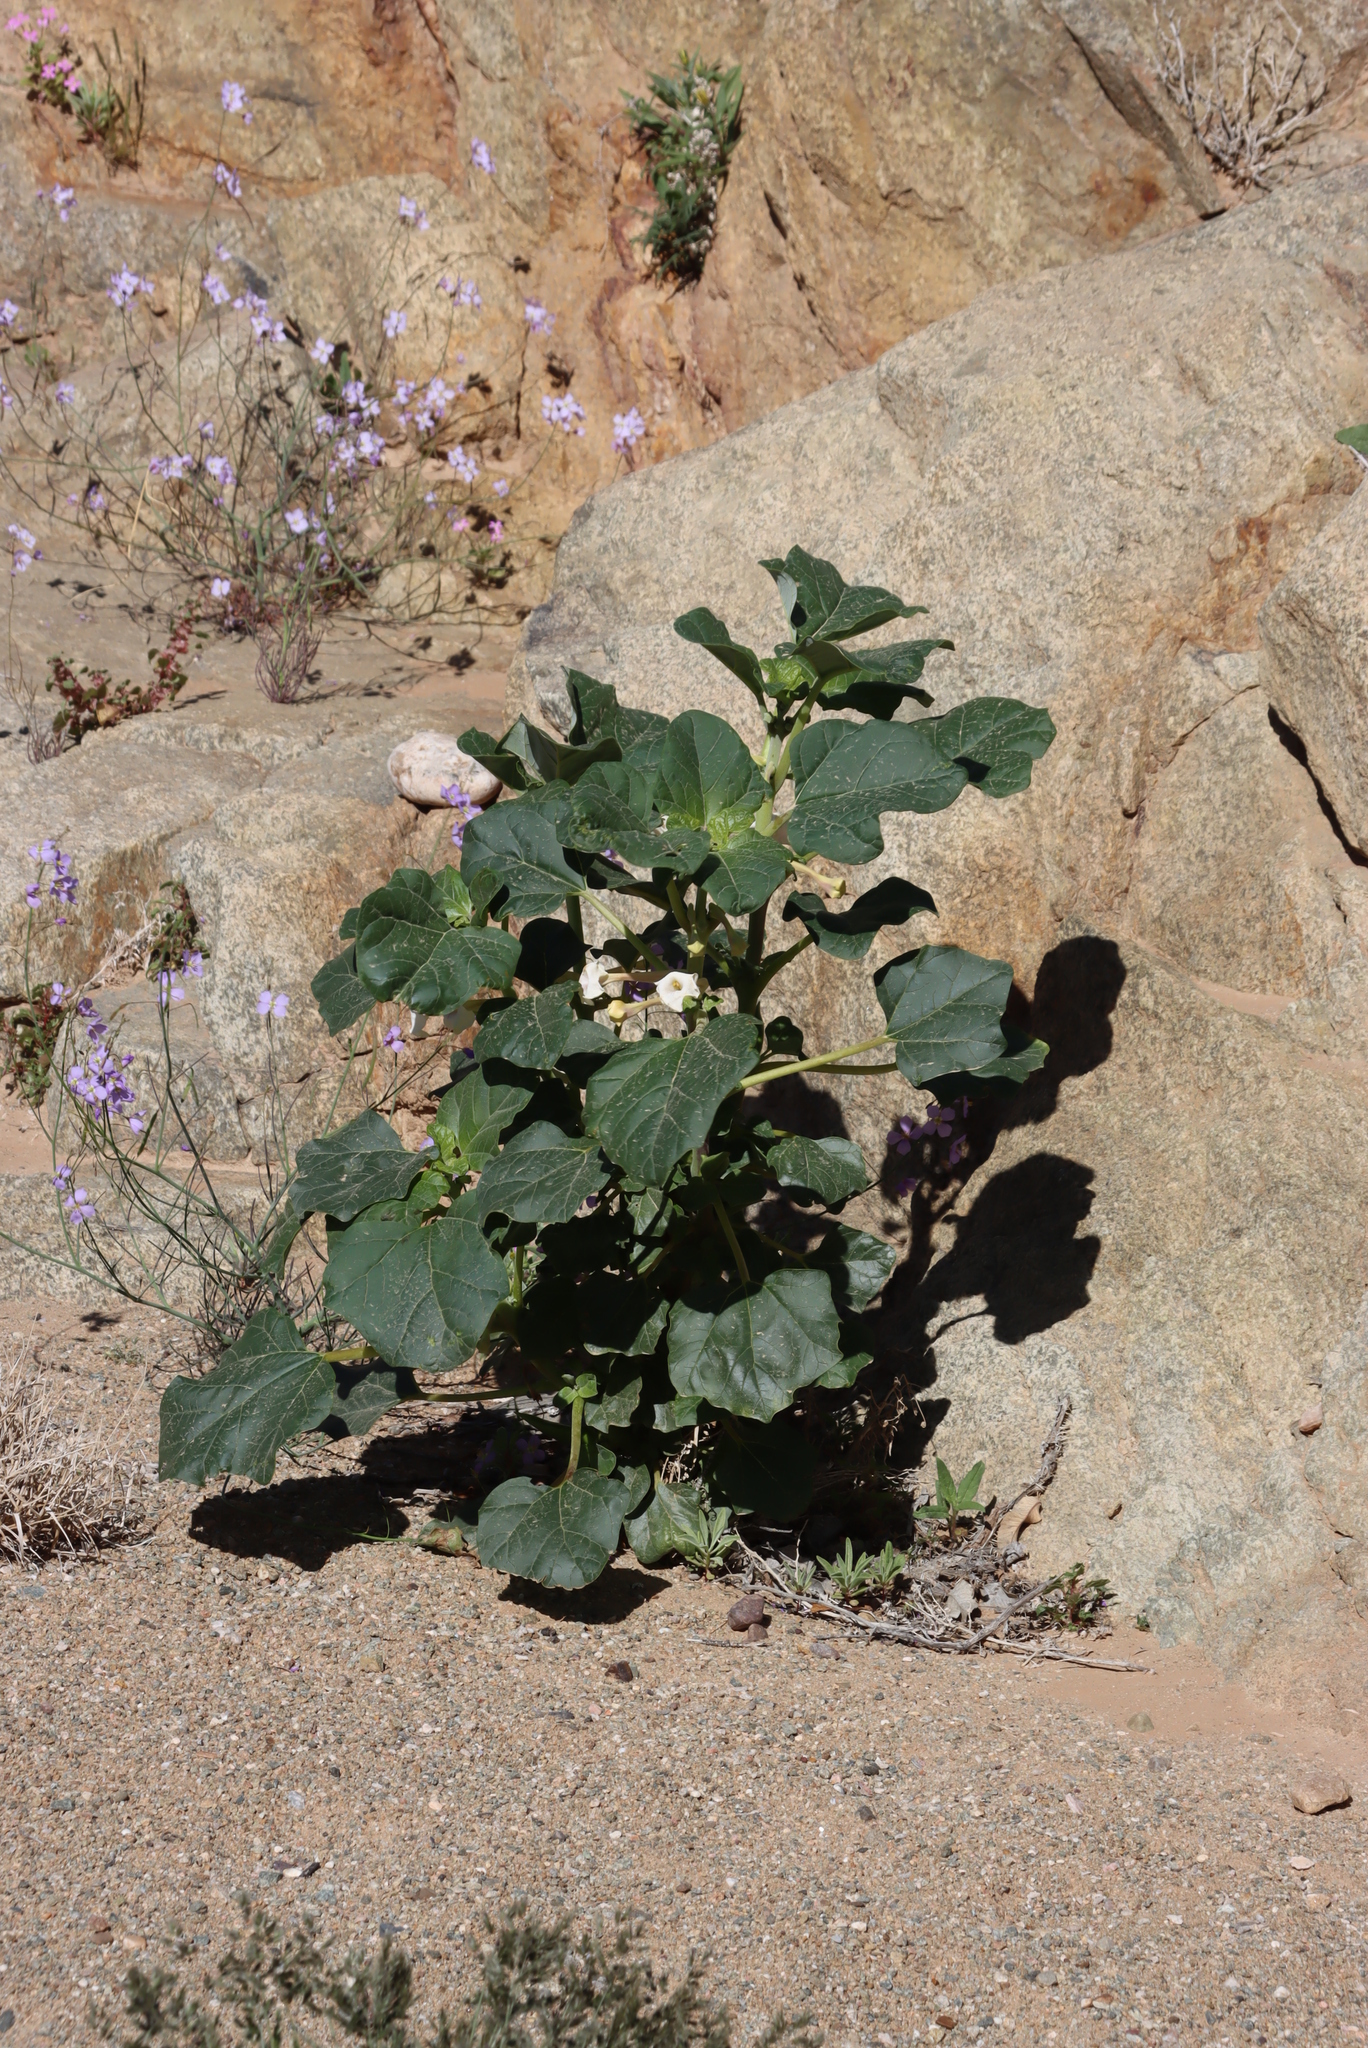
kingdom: Plantae
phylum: Tracheophyta
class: Magnoliopsida
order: Lamiales
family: Pedaliaceae
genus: Rogeria
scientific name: Rogeria longiflora
